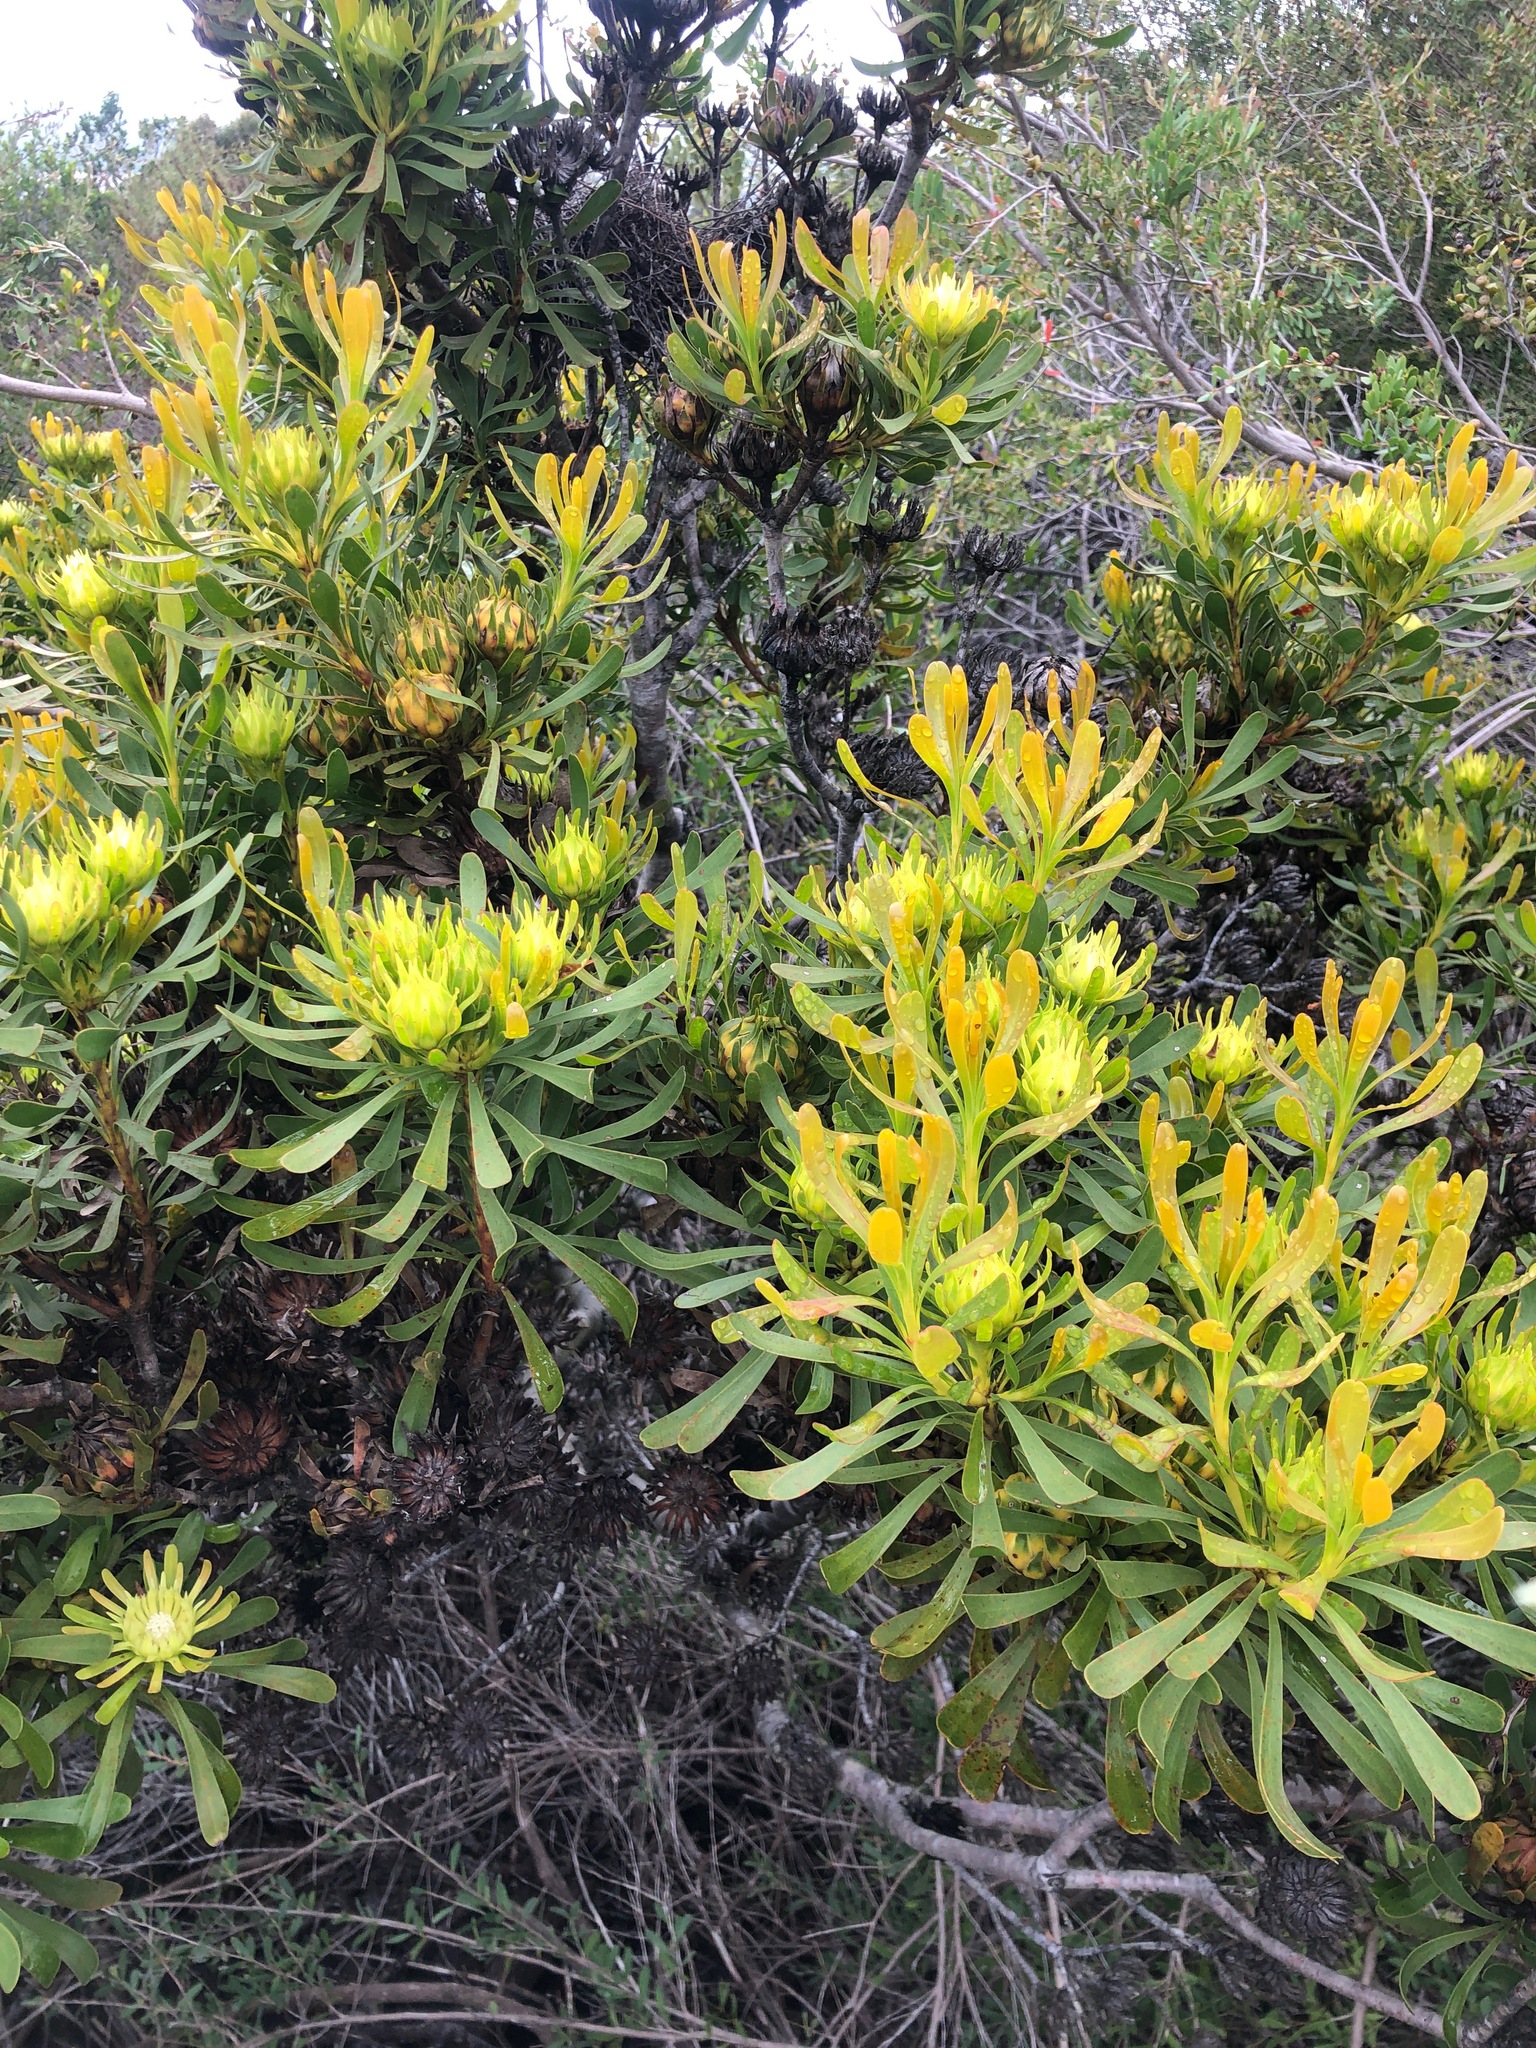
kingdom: Plantae
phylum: Tracheophyta
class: Magnoliopsida
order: Proteales
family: Proteaceae
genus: Aulax
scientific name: Aulax umbellata
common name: Broad-leaf featherbush
